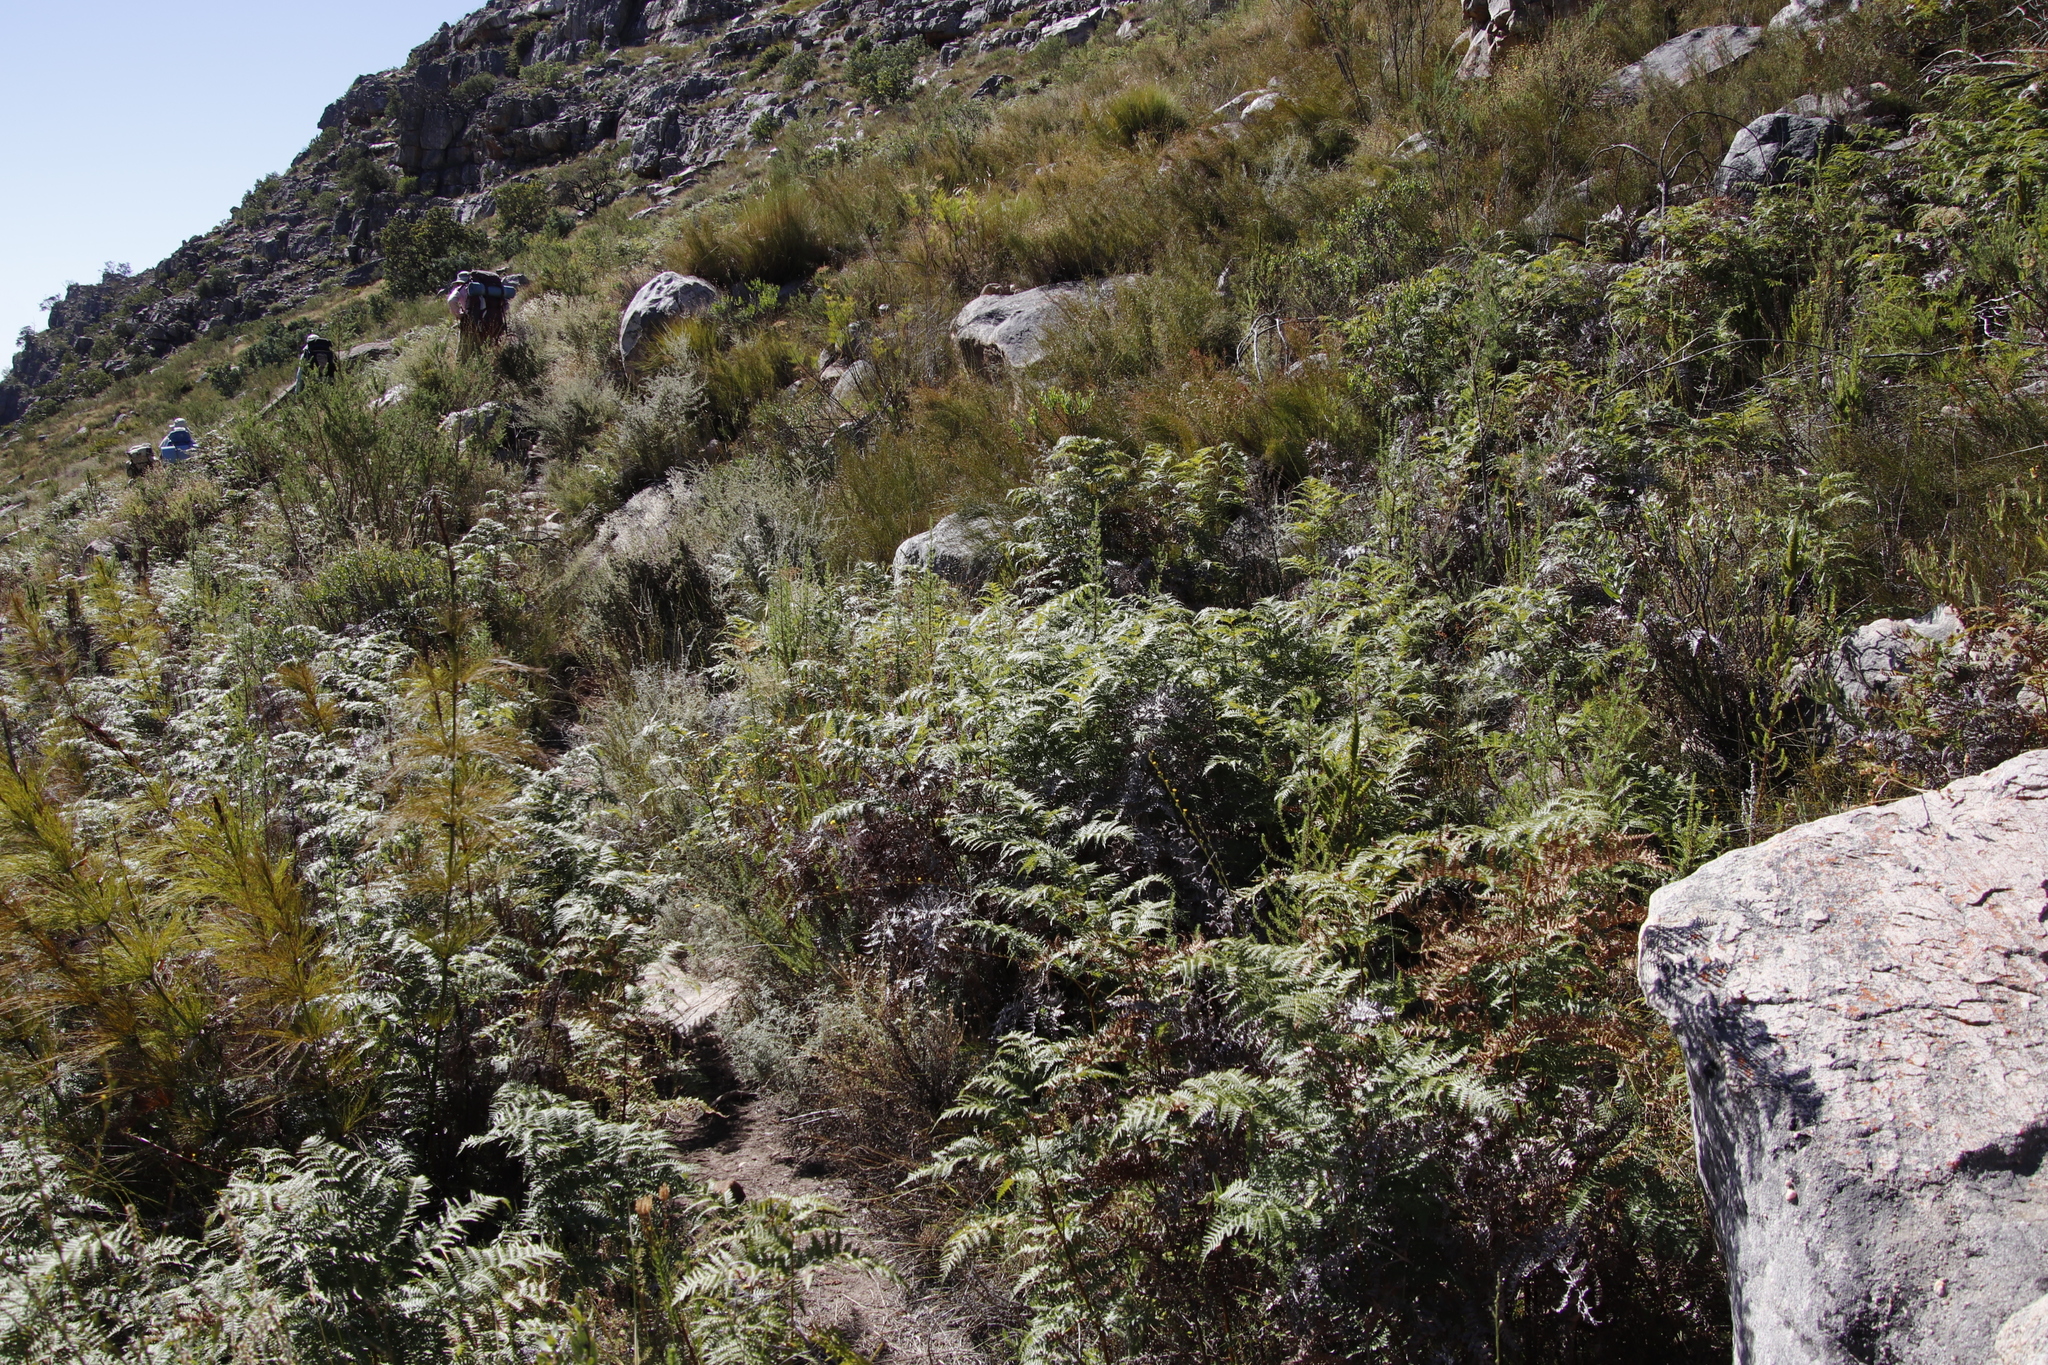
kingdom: Plantae
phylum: Tracheophyta
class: Polypodiopsida
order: Polypodiales
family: Dennstaedtiaceae
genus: Pteridium
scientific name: Pteridium aquilinum
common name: Bracken
